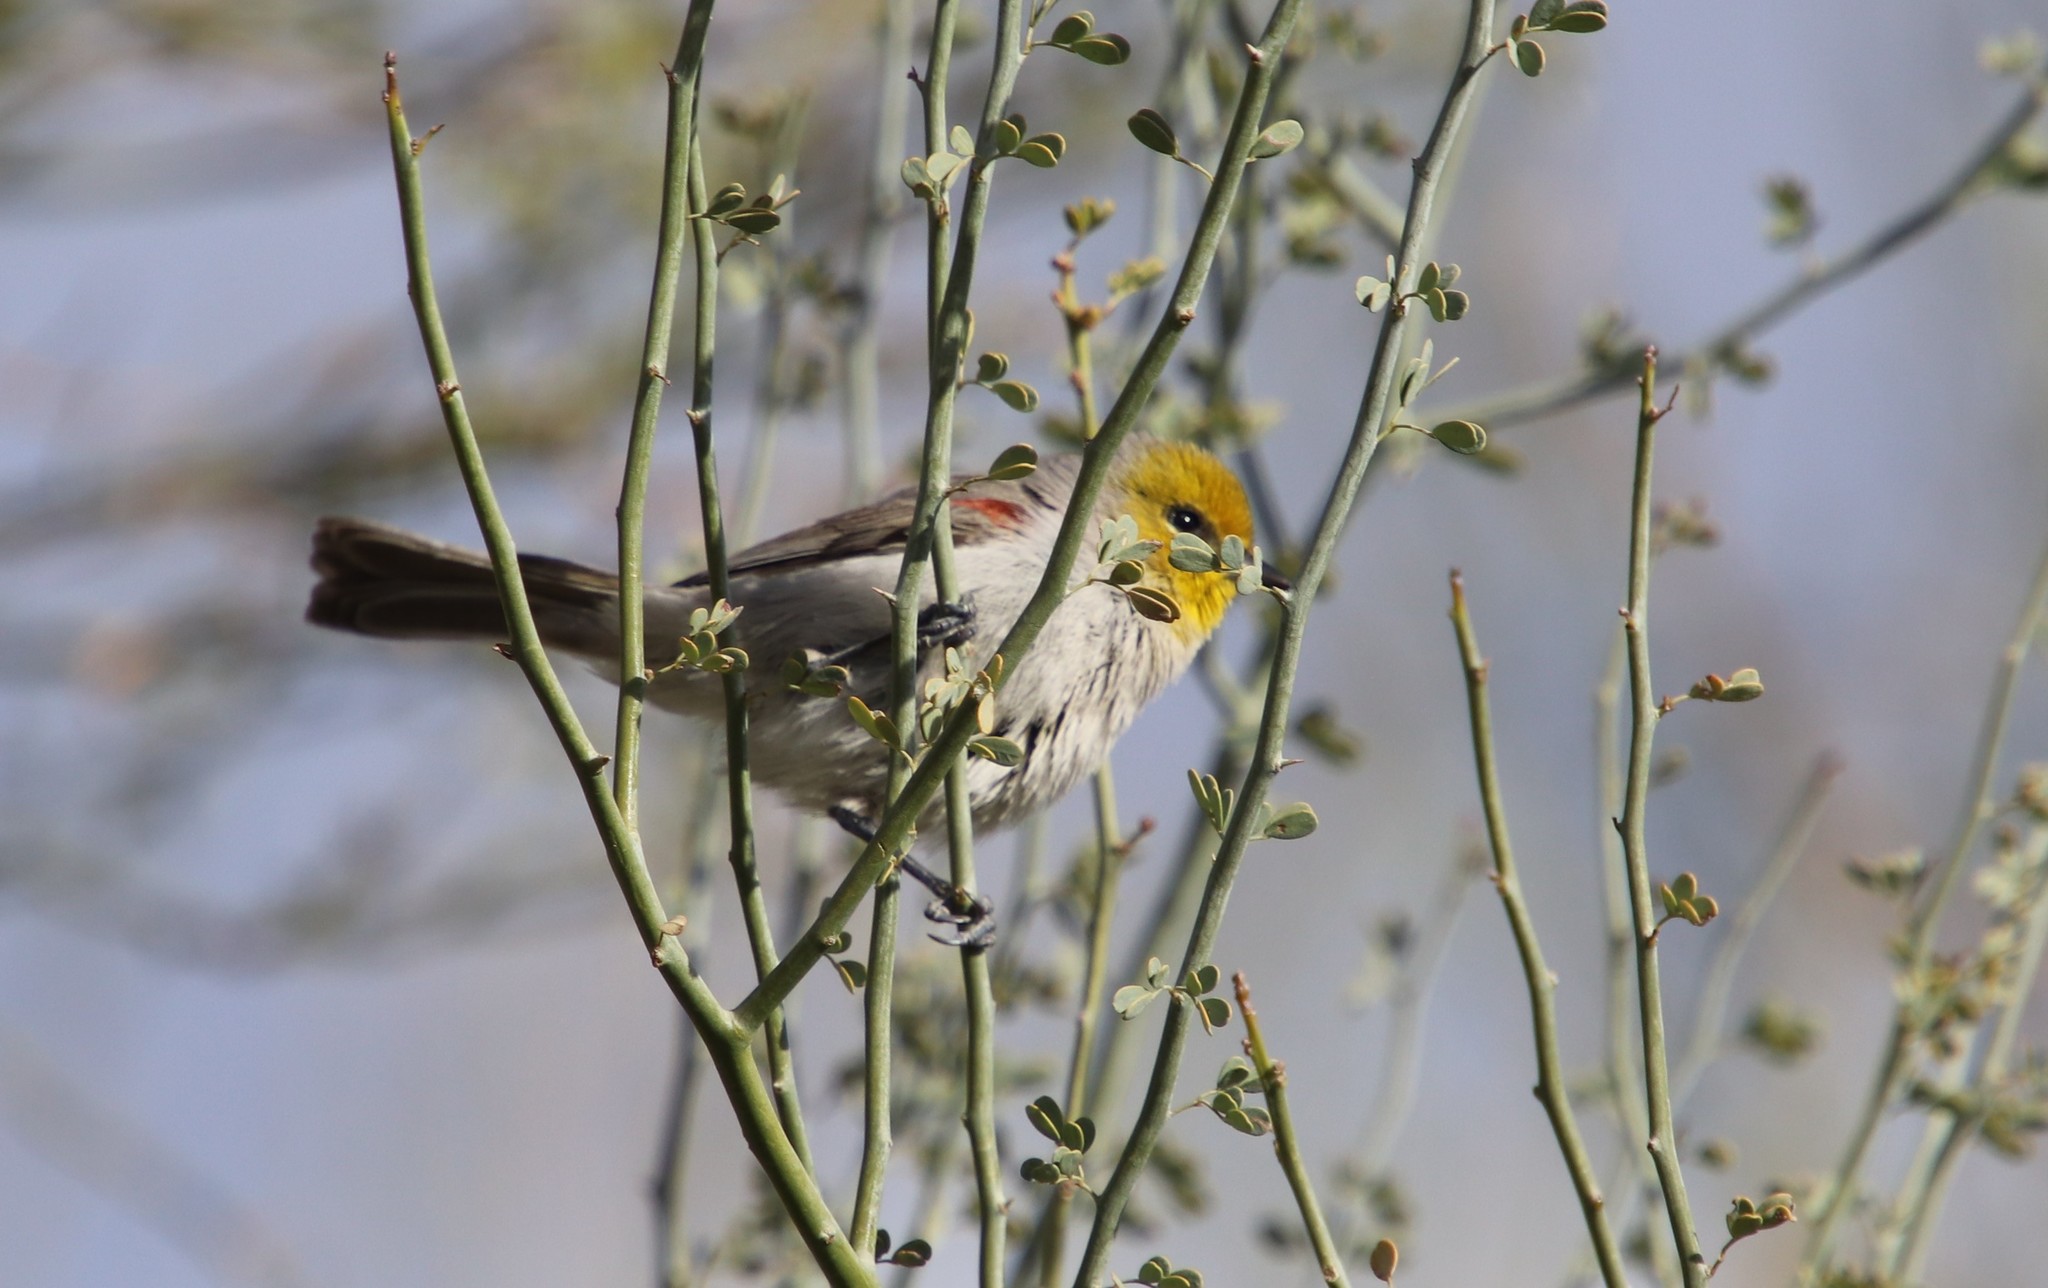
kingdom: Animalia
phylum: Chordata
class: Aves
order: Passeriformes
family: Remizidae
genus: Auriparus
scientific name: Auriparus flaviceps
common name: Verdin
